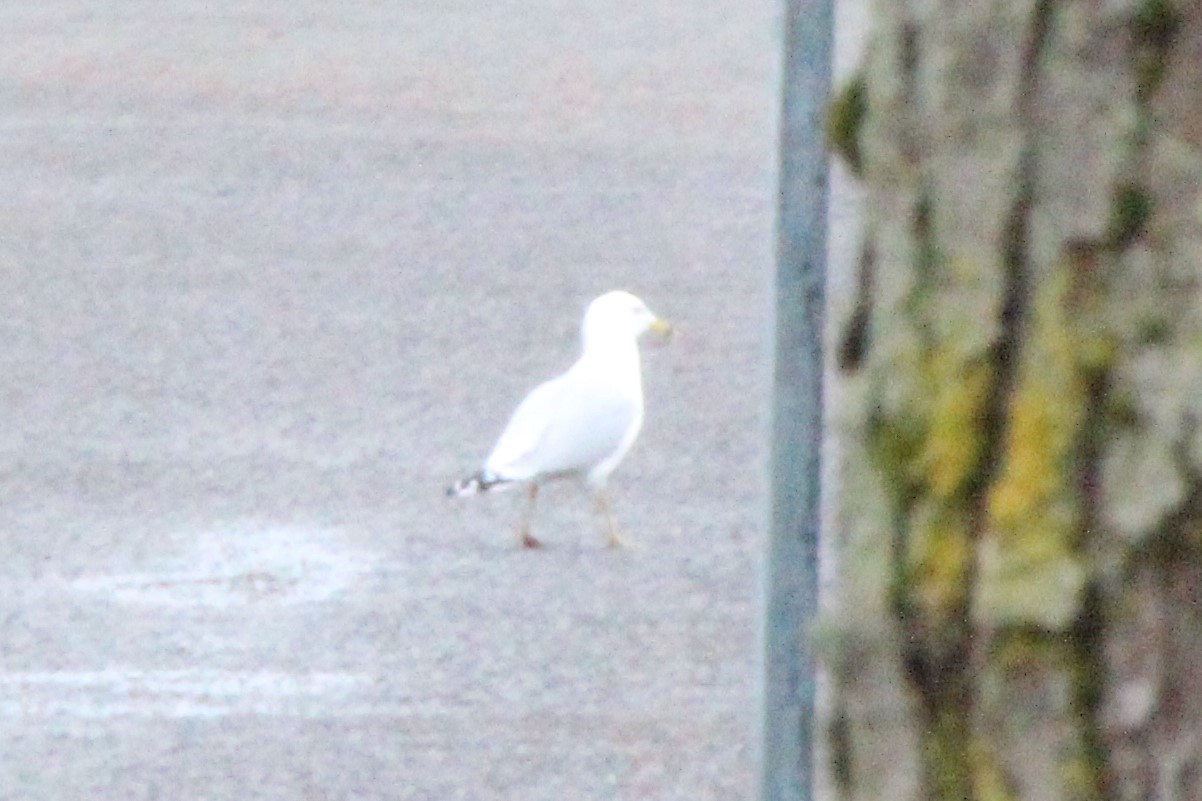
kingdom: Animalia
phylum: Chordata
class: Aves
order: Charadriiformes
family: Laridae
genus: Larus
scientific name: Larus delawarensis
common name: Ring-billed gull
